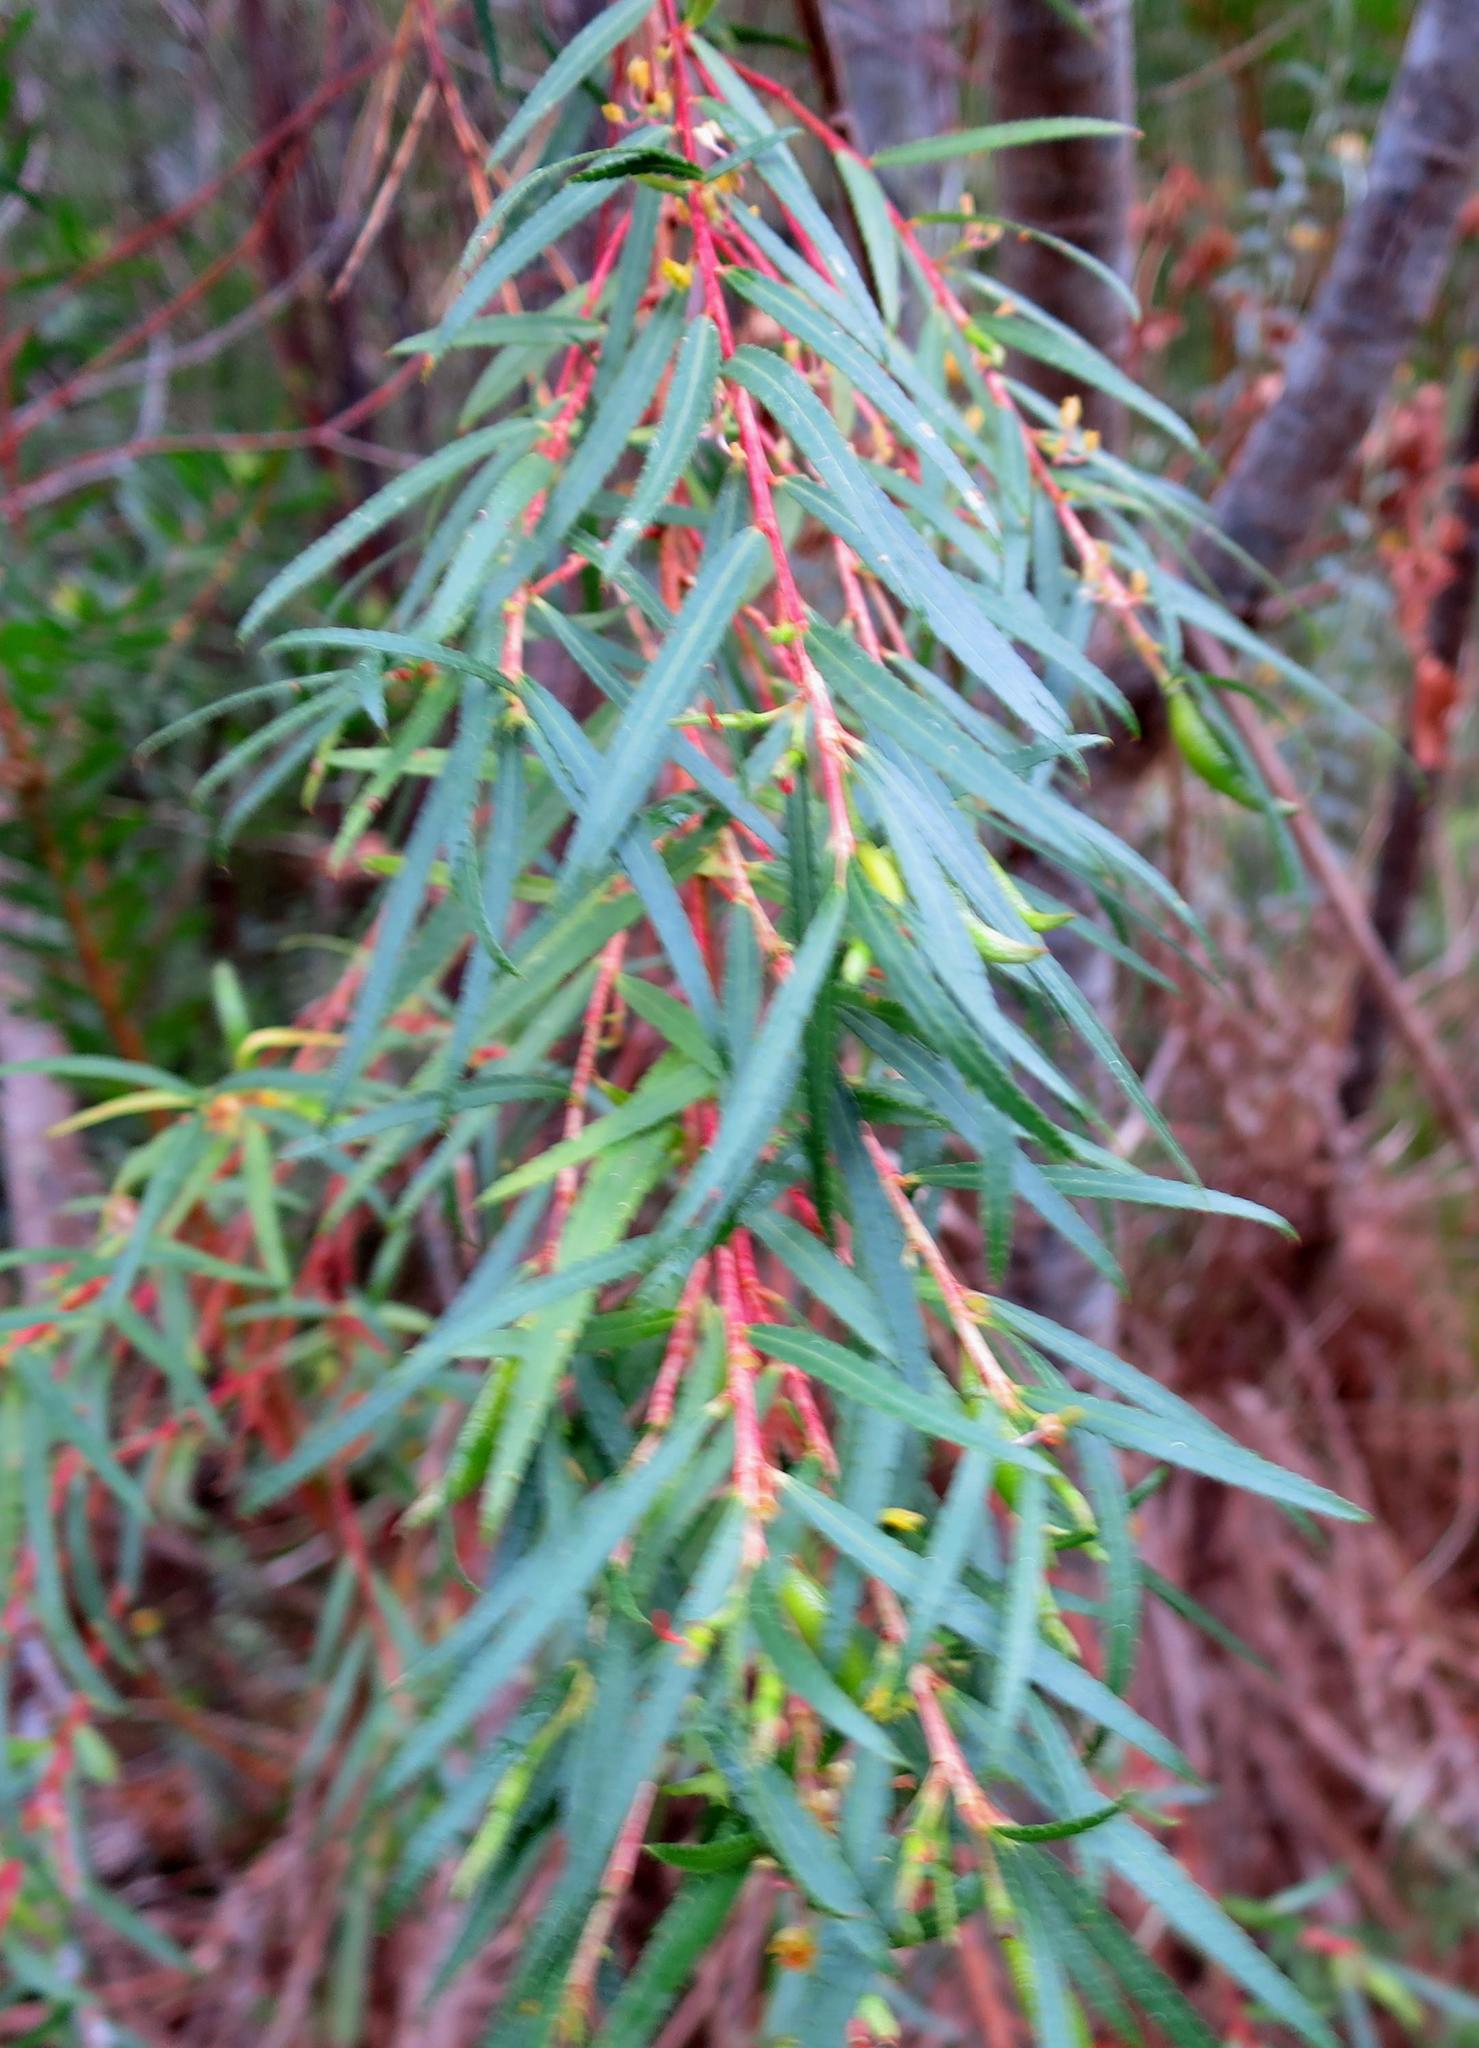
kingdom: Plantae
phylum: Tracheophyta
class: Magnoliopsida
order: Sapindales
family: Rutaceae
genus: Empleurum
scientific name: Empleurum unicapsulare
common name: False buchu
